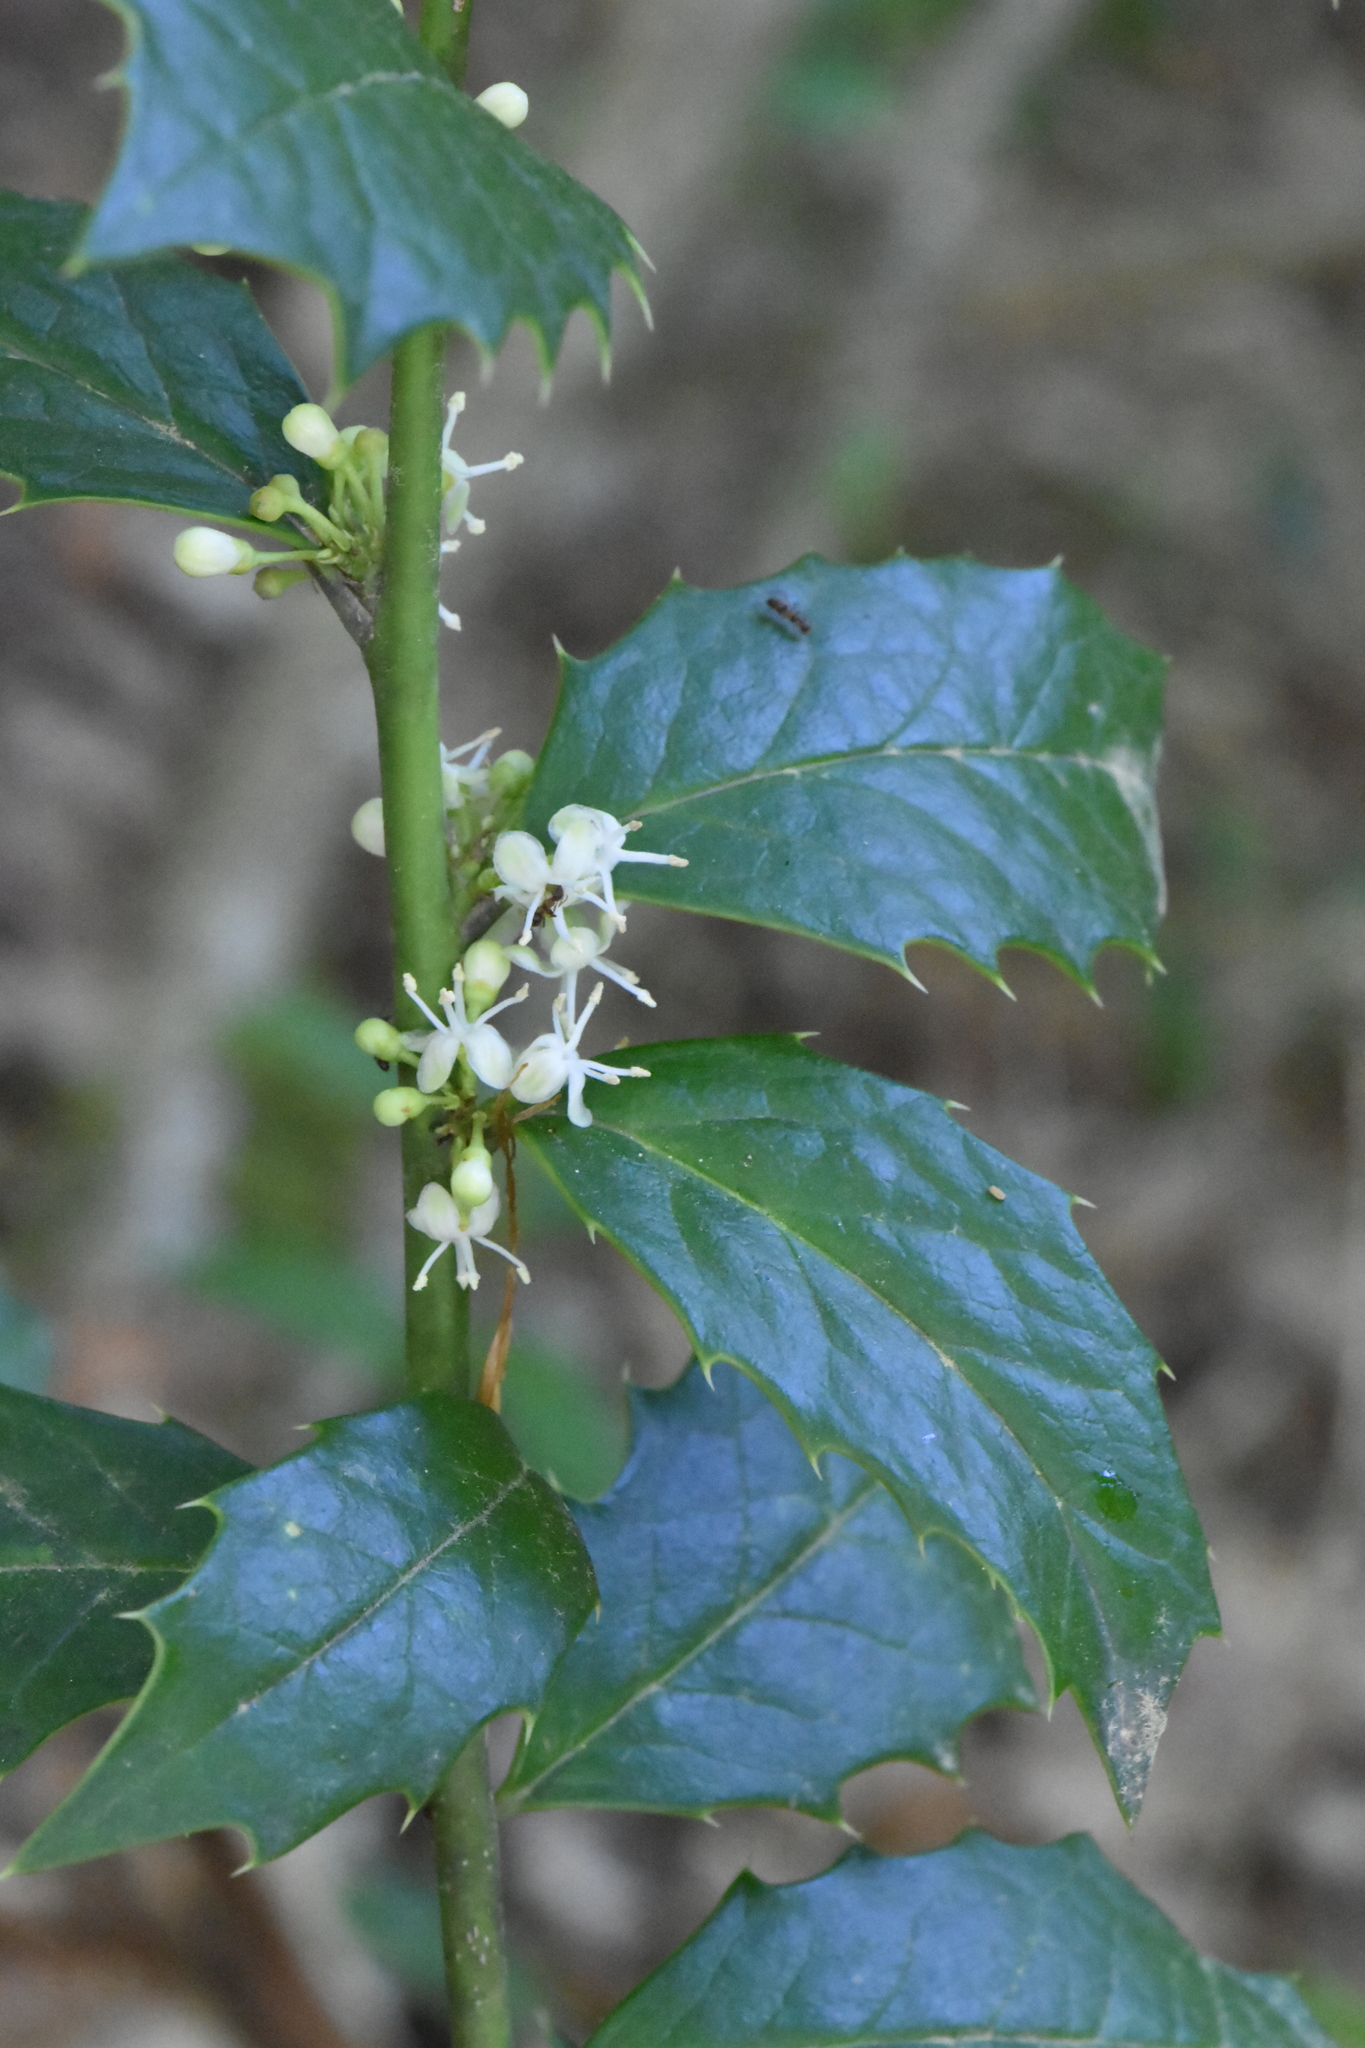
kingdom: Plantae
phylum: Tracheophyta
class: Magnoliopsida
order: Aquifoliales
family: Aquifoliaceae
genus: Ilex
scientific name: Ilex colchica
